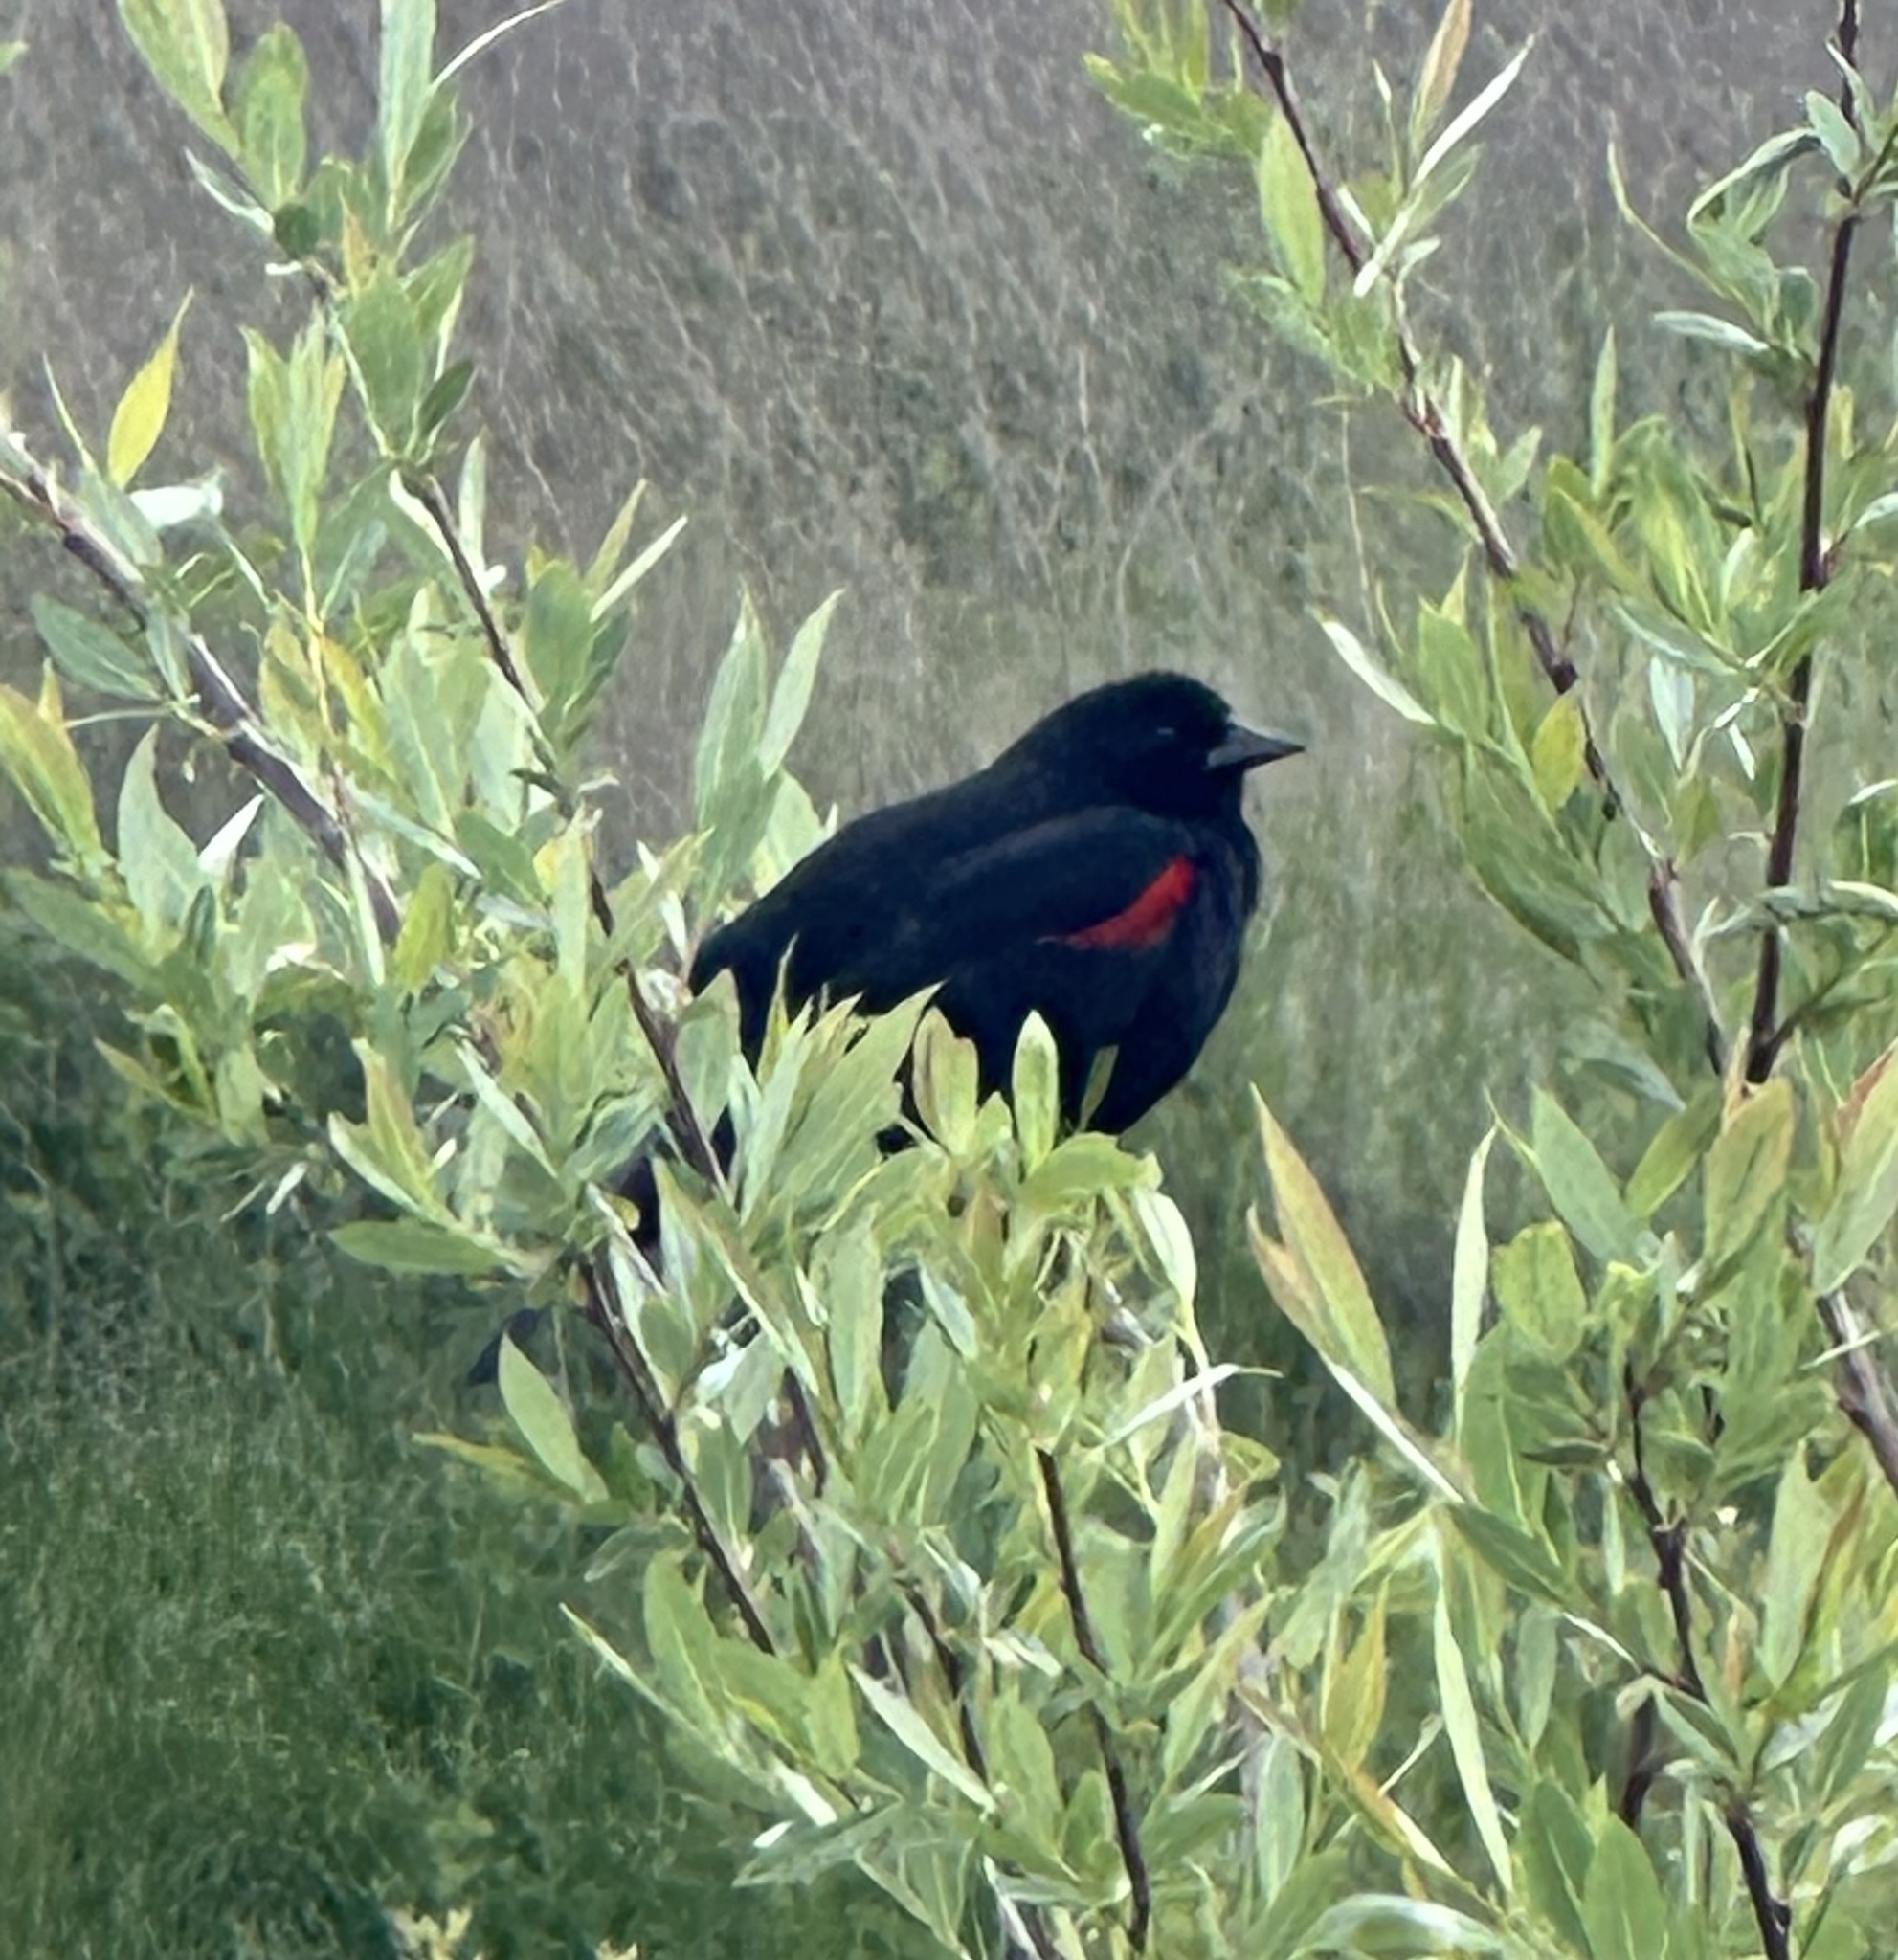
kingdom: Animalia
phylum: Chordata
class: Aves
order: Passeriformes
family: Icteridae
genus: Agelaius
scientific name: Agelaius phoeniceus
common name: Red-winged blackbird
